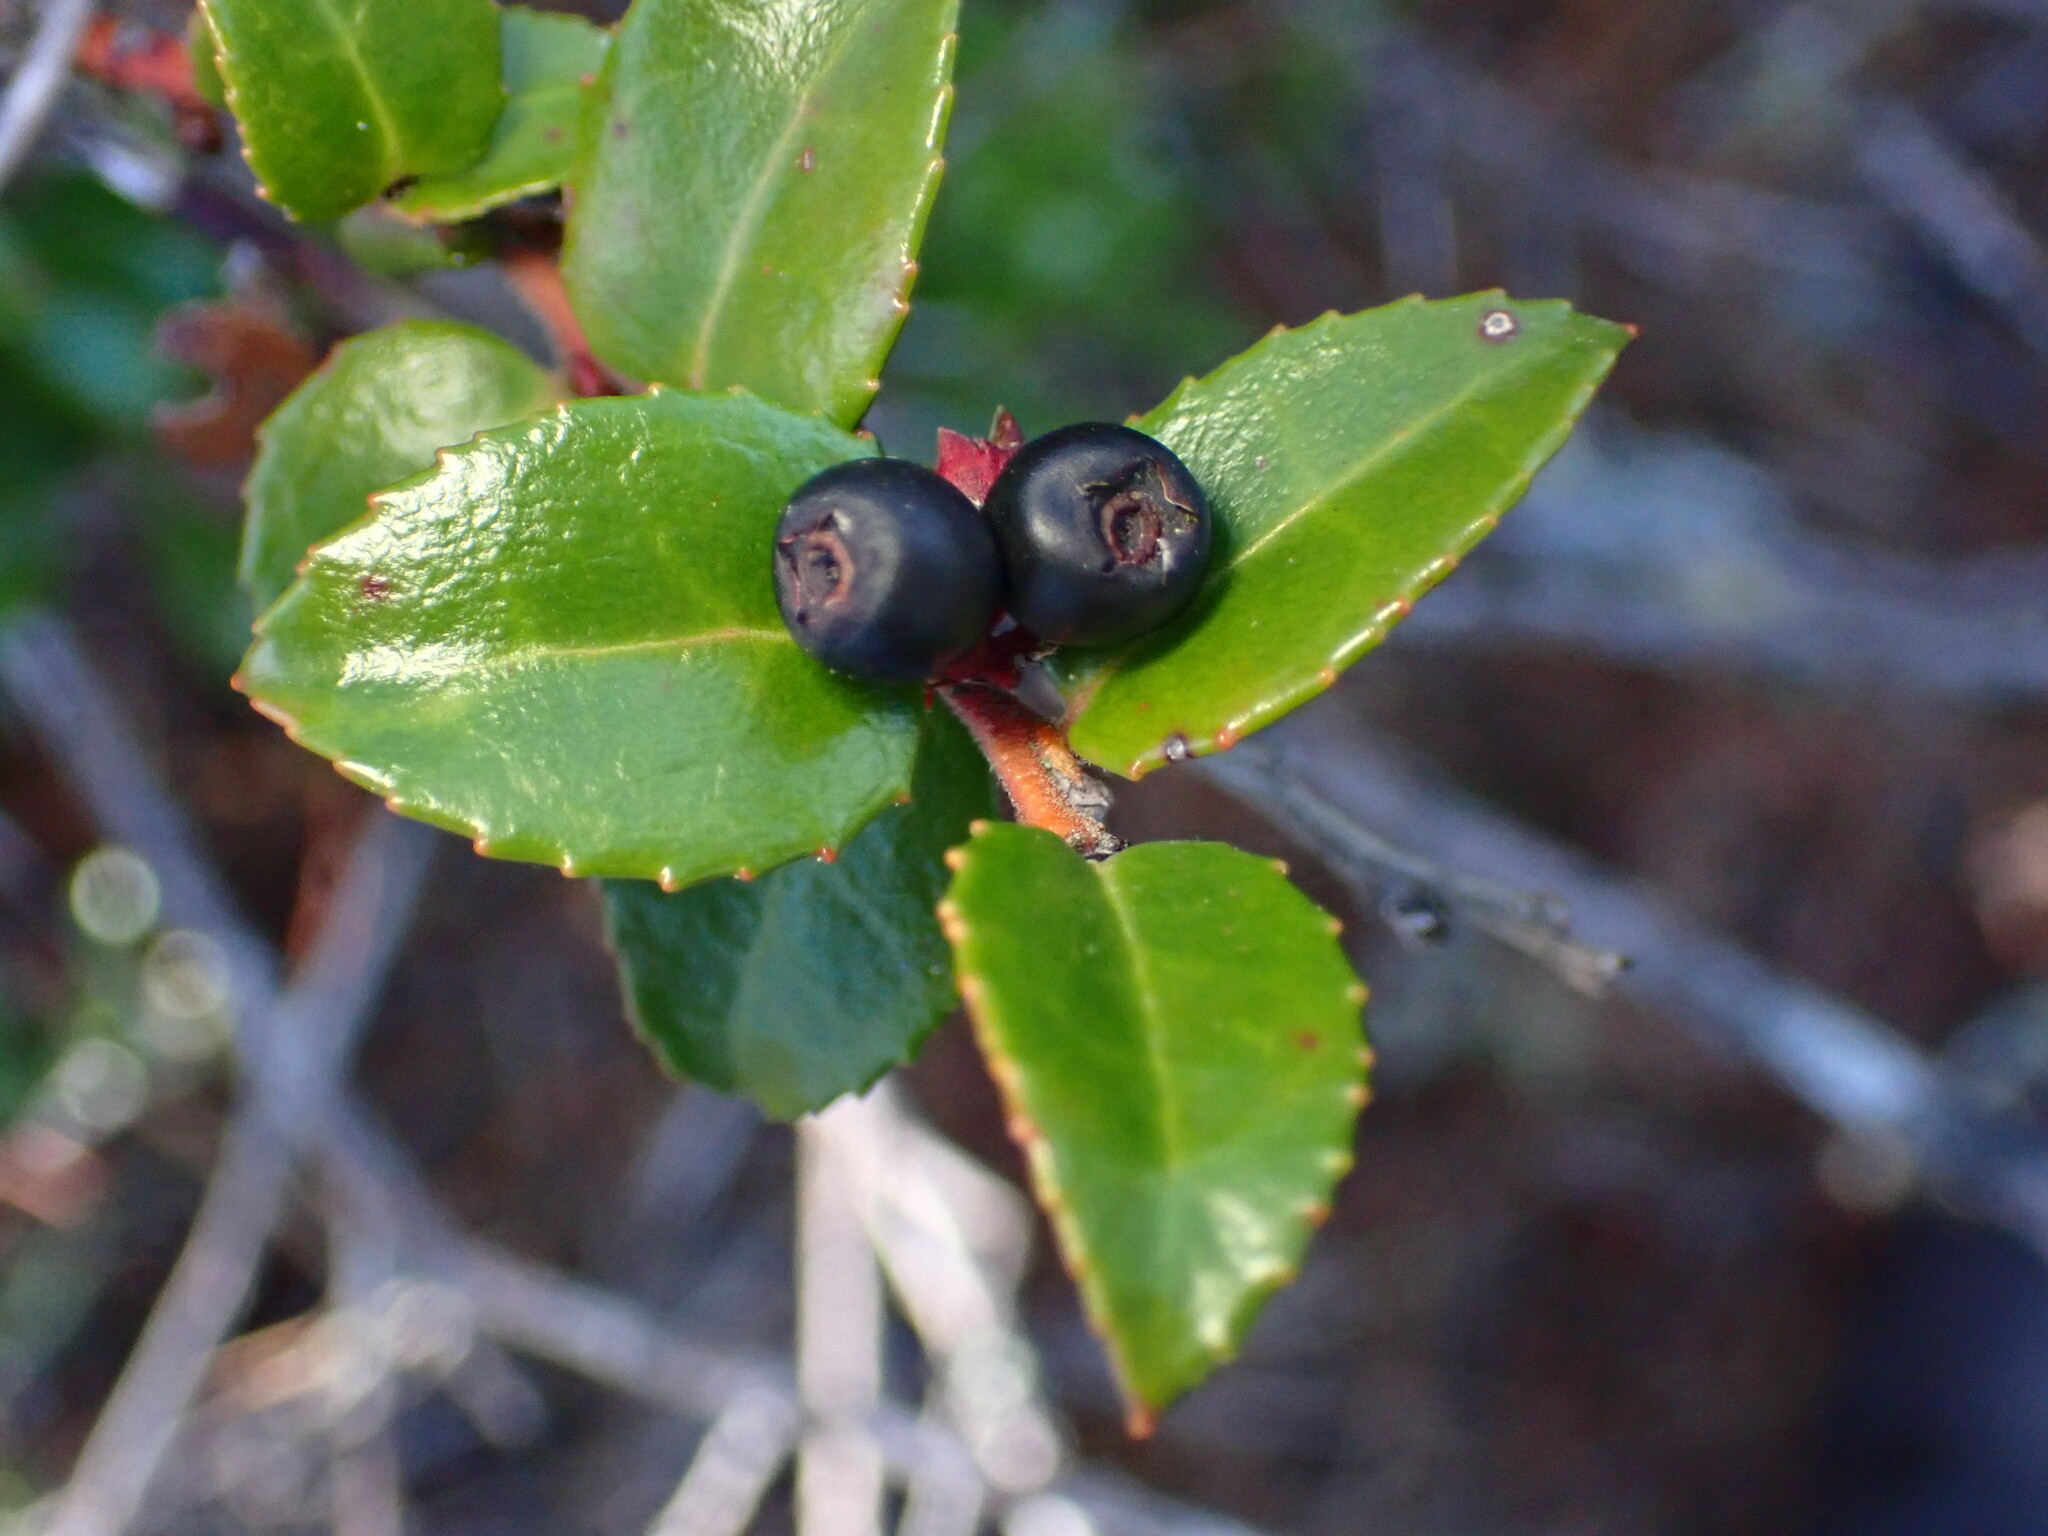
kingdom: Plantae
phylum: Tracheophyta
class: Magnoliopsida
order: Ericales
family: Ericaceae
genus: Vaccinium
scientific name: Vaccinium ovatum
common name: California-huckleberry
